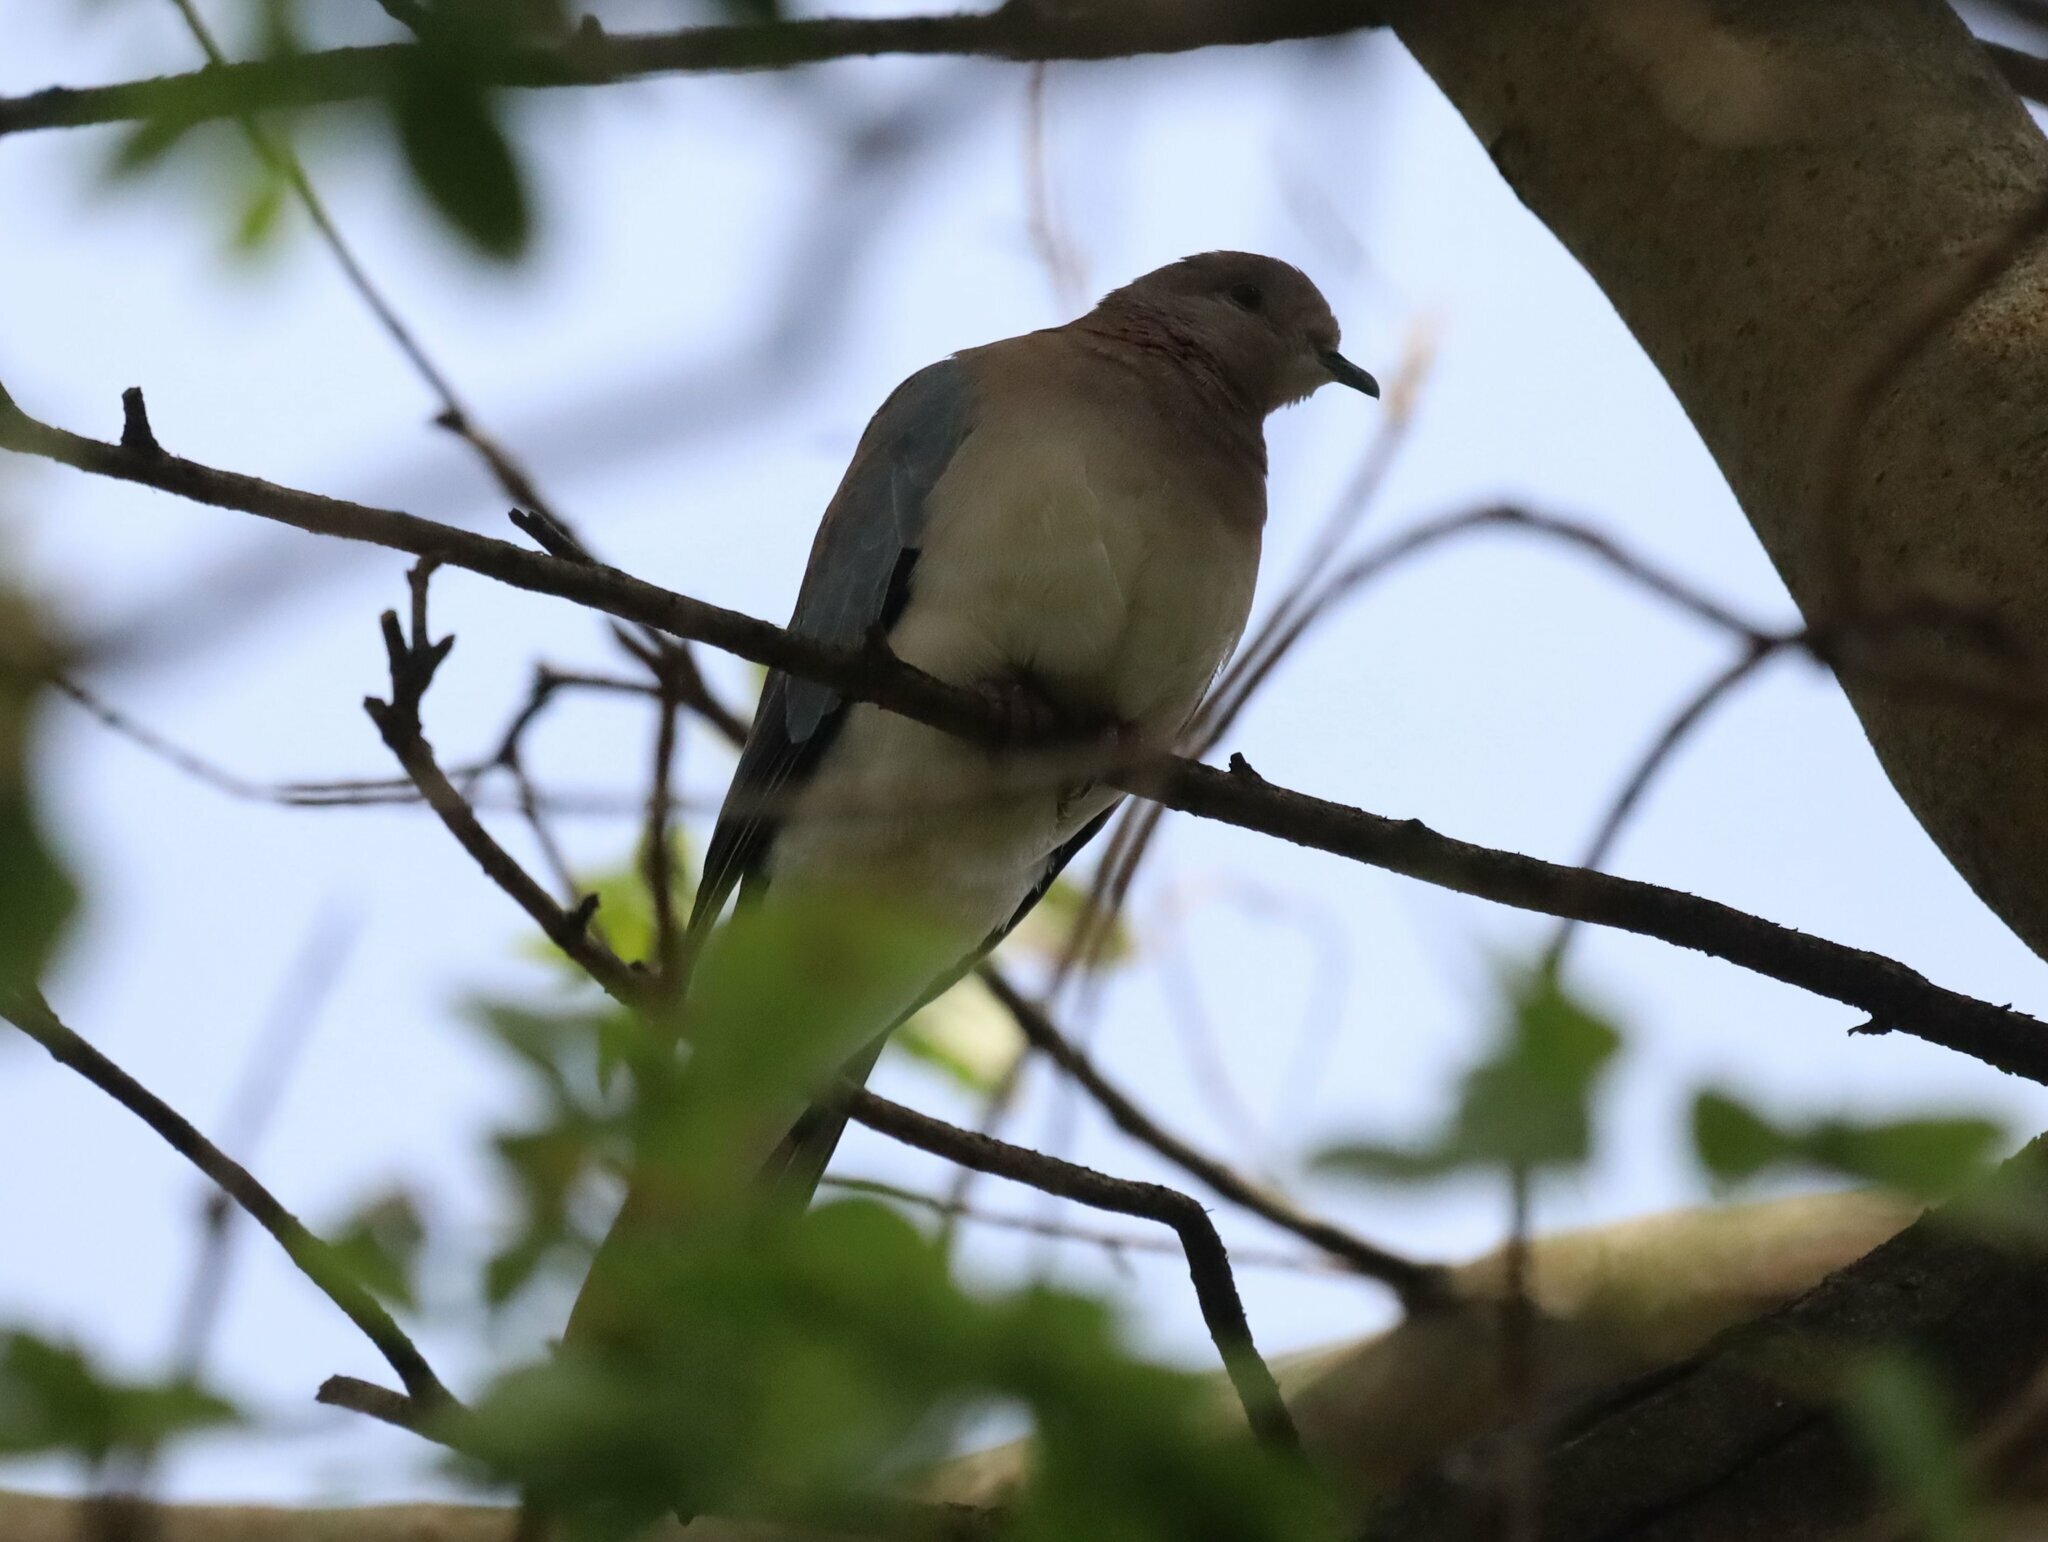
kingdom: Animalia
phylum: Chordata
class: Aves
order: Columbiformes
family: Columbidae
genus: Spilopelia
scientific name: Spilopelia senegalensis
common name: Laughing dove
